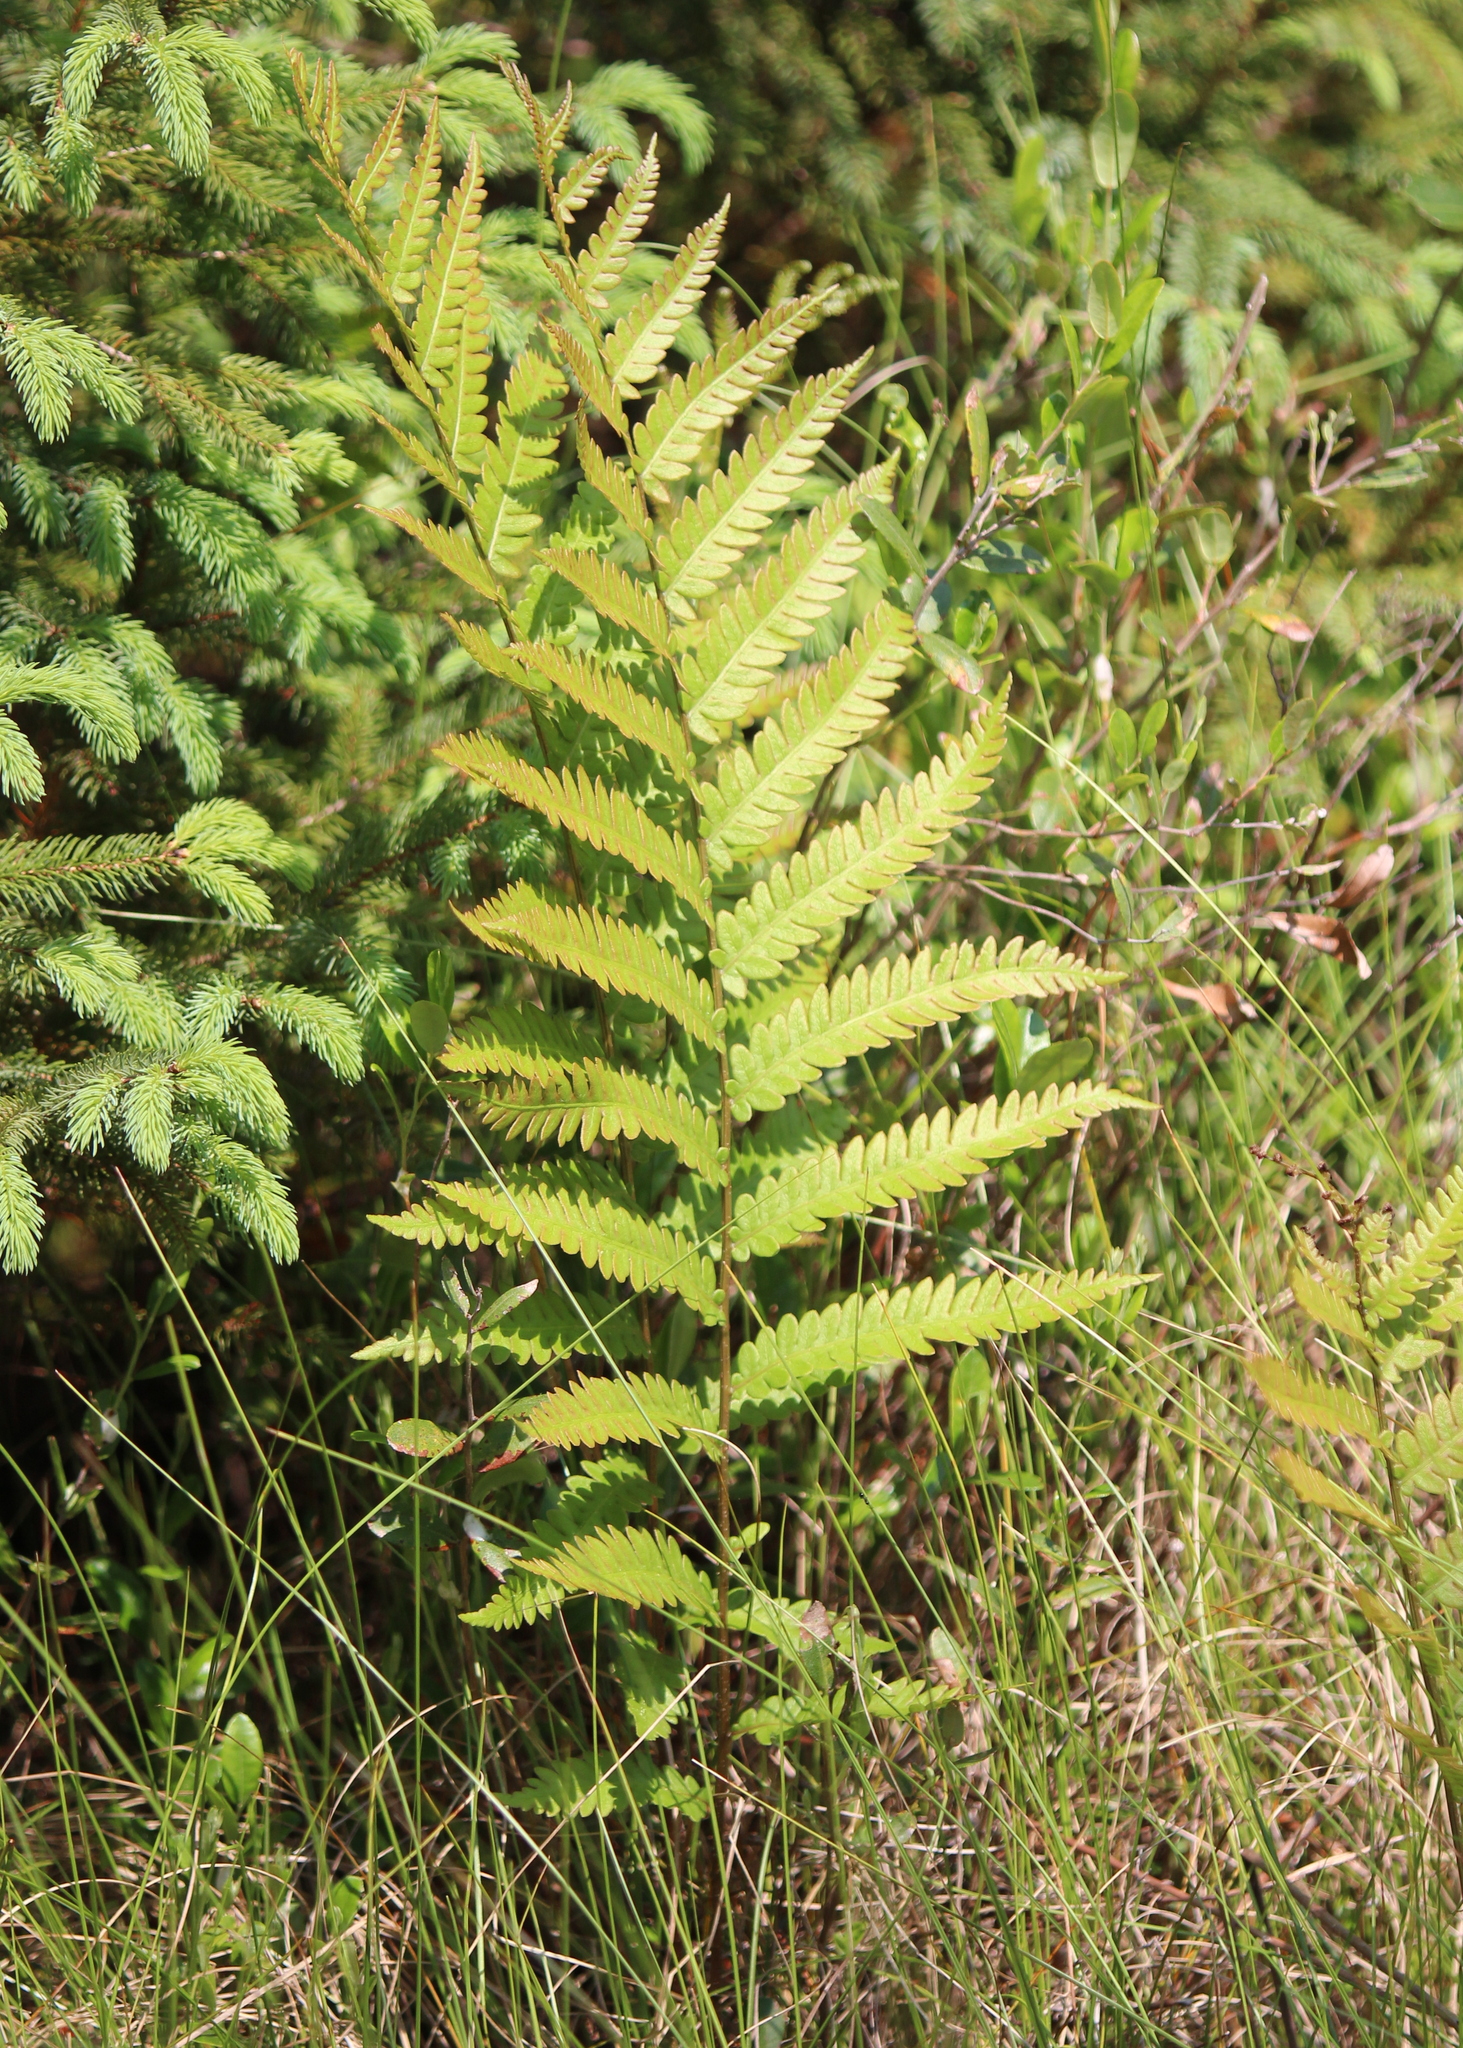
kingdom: Plantae
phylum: Tracheophyta
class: Polypodiopsida
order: Polypodiales
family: Blechnaceae
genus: Anchistea
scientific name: Anchistea virginica
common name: Virginia chain fern
